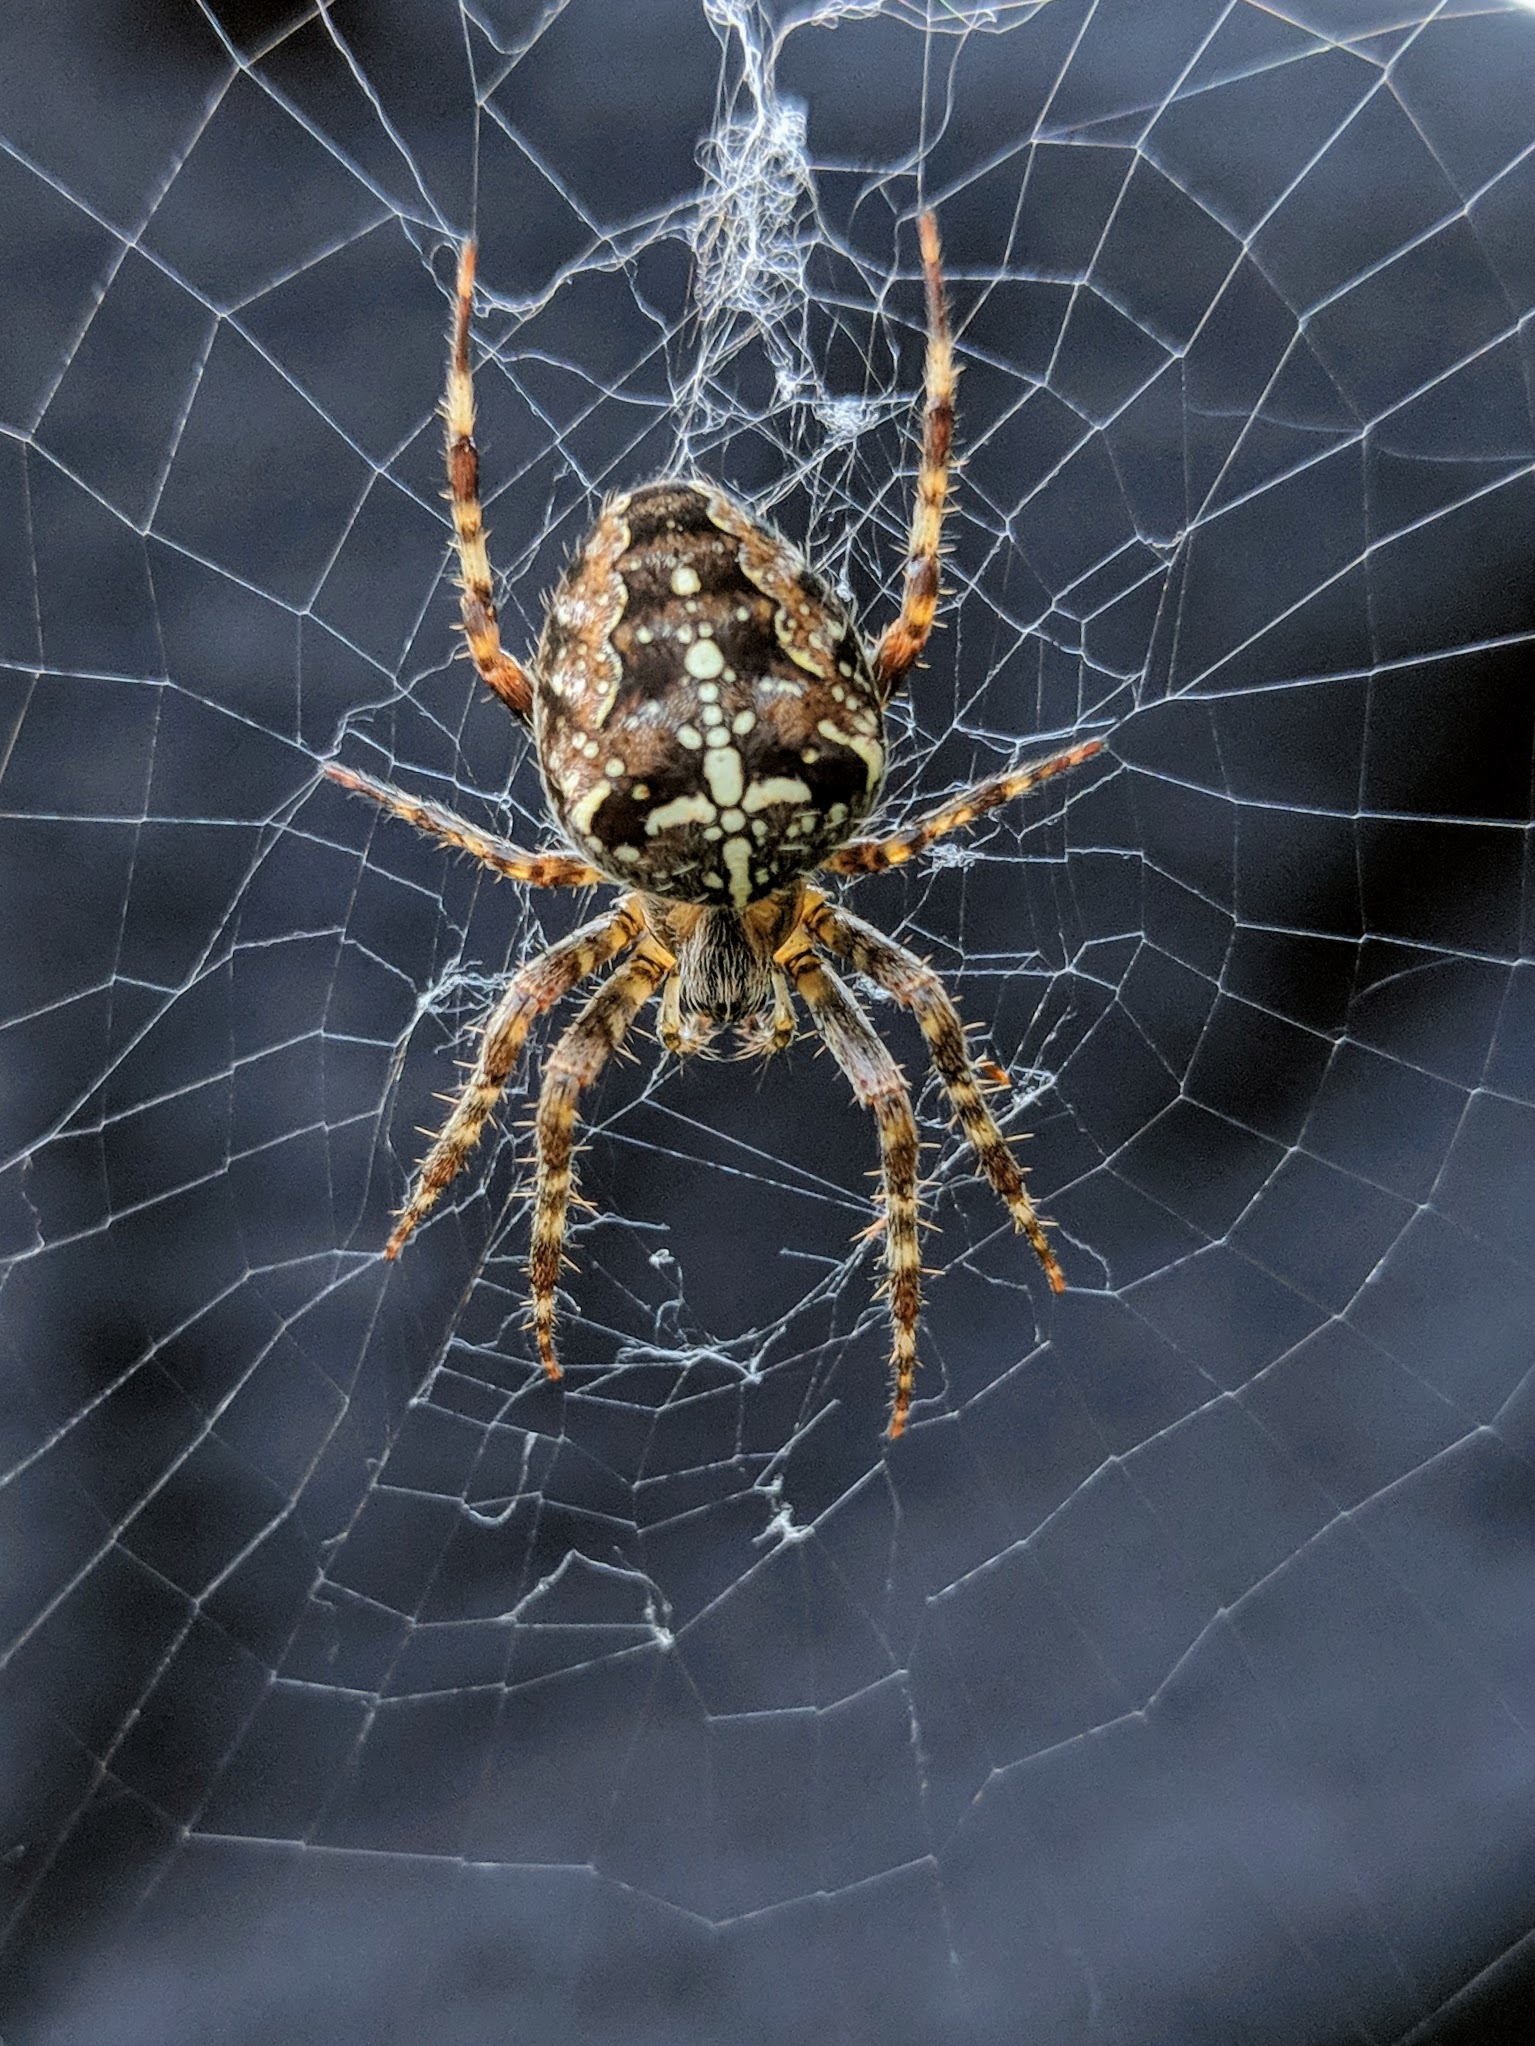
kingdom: Animalia
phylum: Arthropoda
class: Arachnida
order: Araneae
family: Araneidae
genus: Araneus
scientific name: Araneus diadematus
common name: Cross orbweaver
